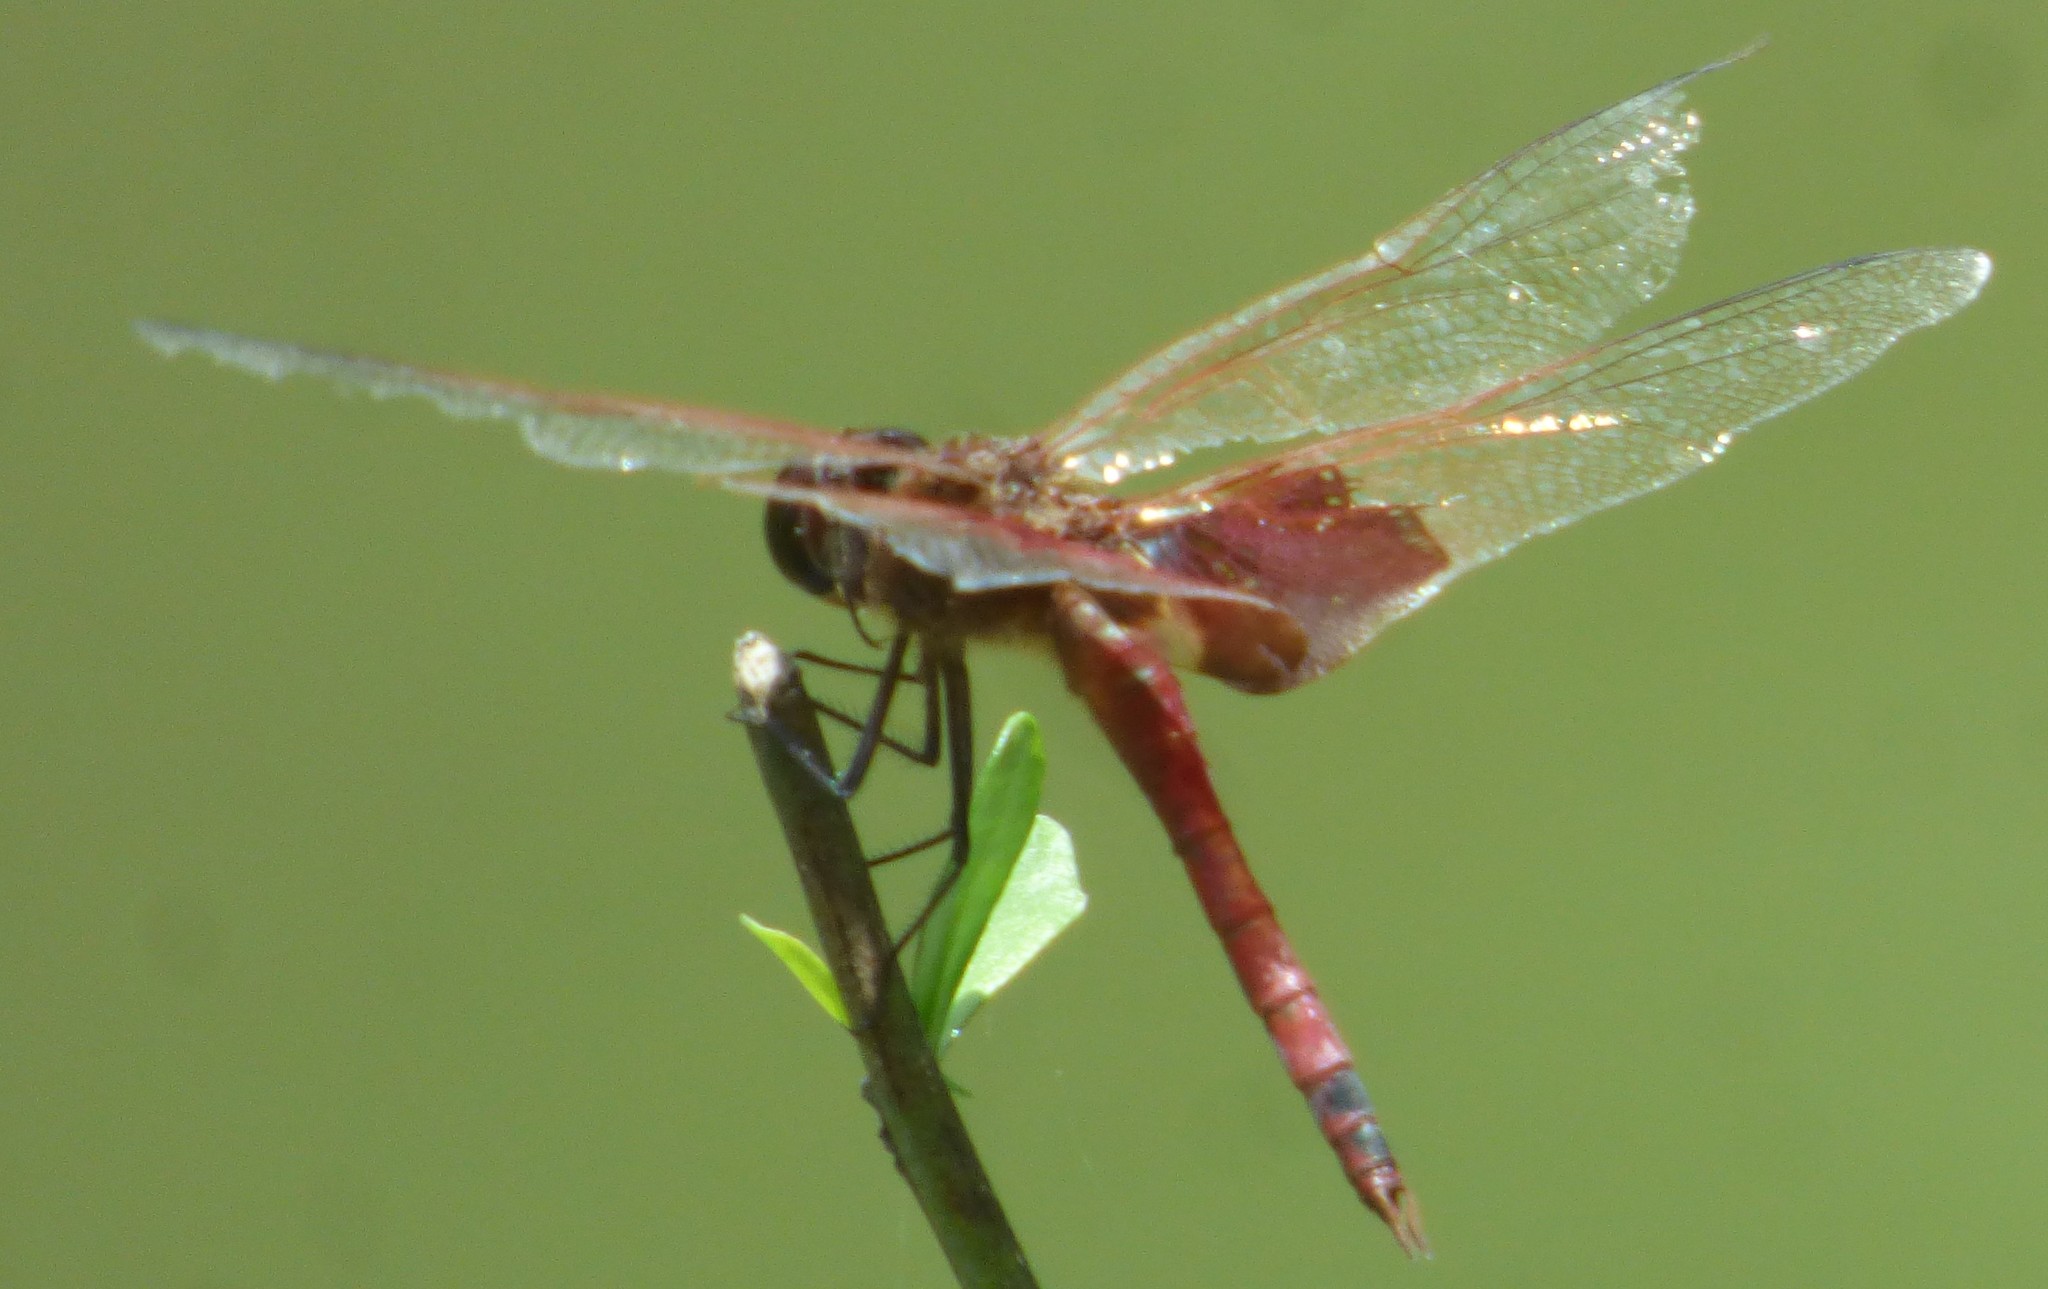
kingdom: Animalia
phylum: Arthropoda
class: Insecta
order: Odonata
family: Libellulidae
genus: Tramea
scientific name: Tramea carolina
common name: Carolina saddlebags
